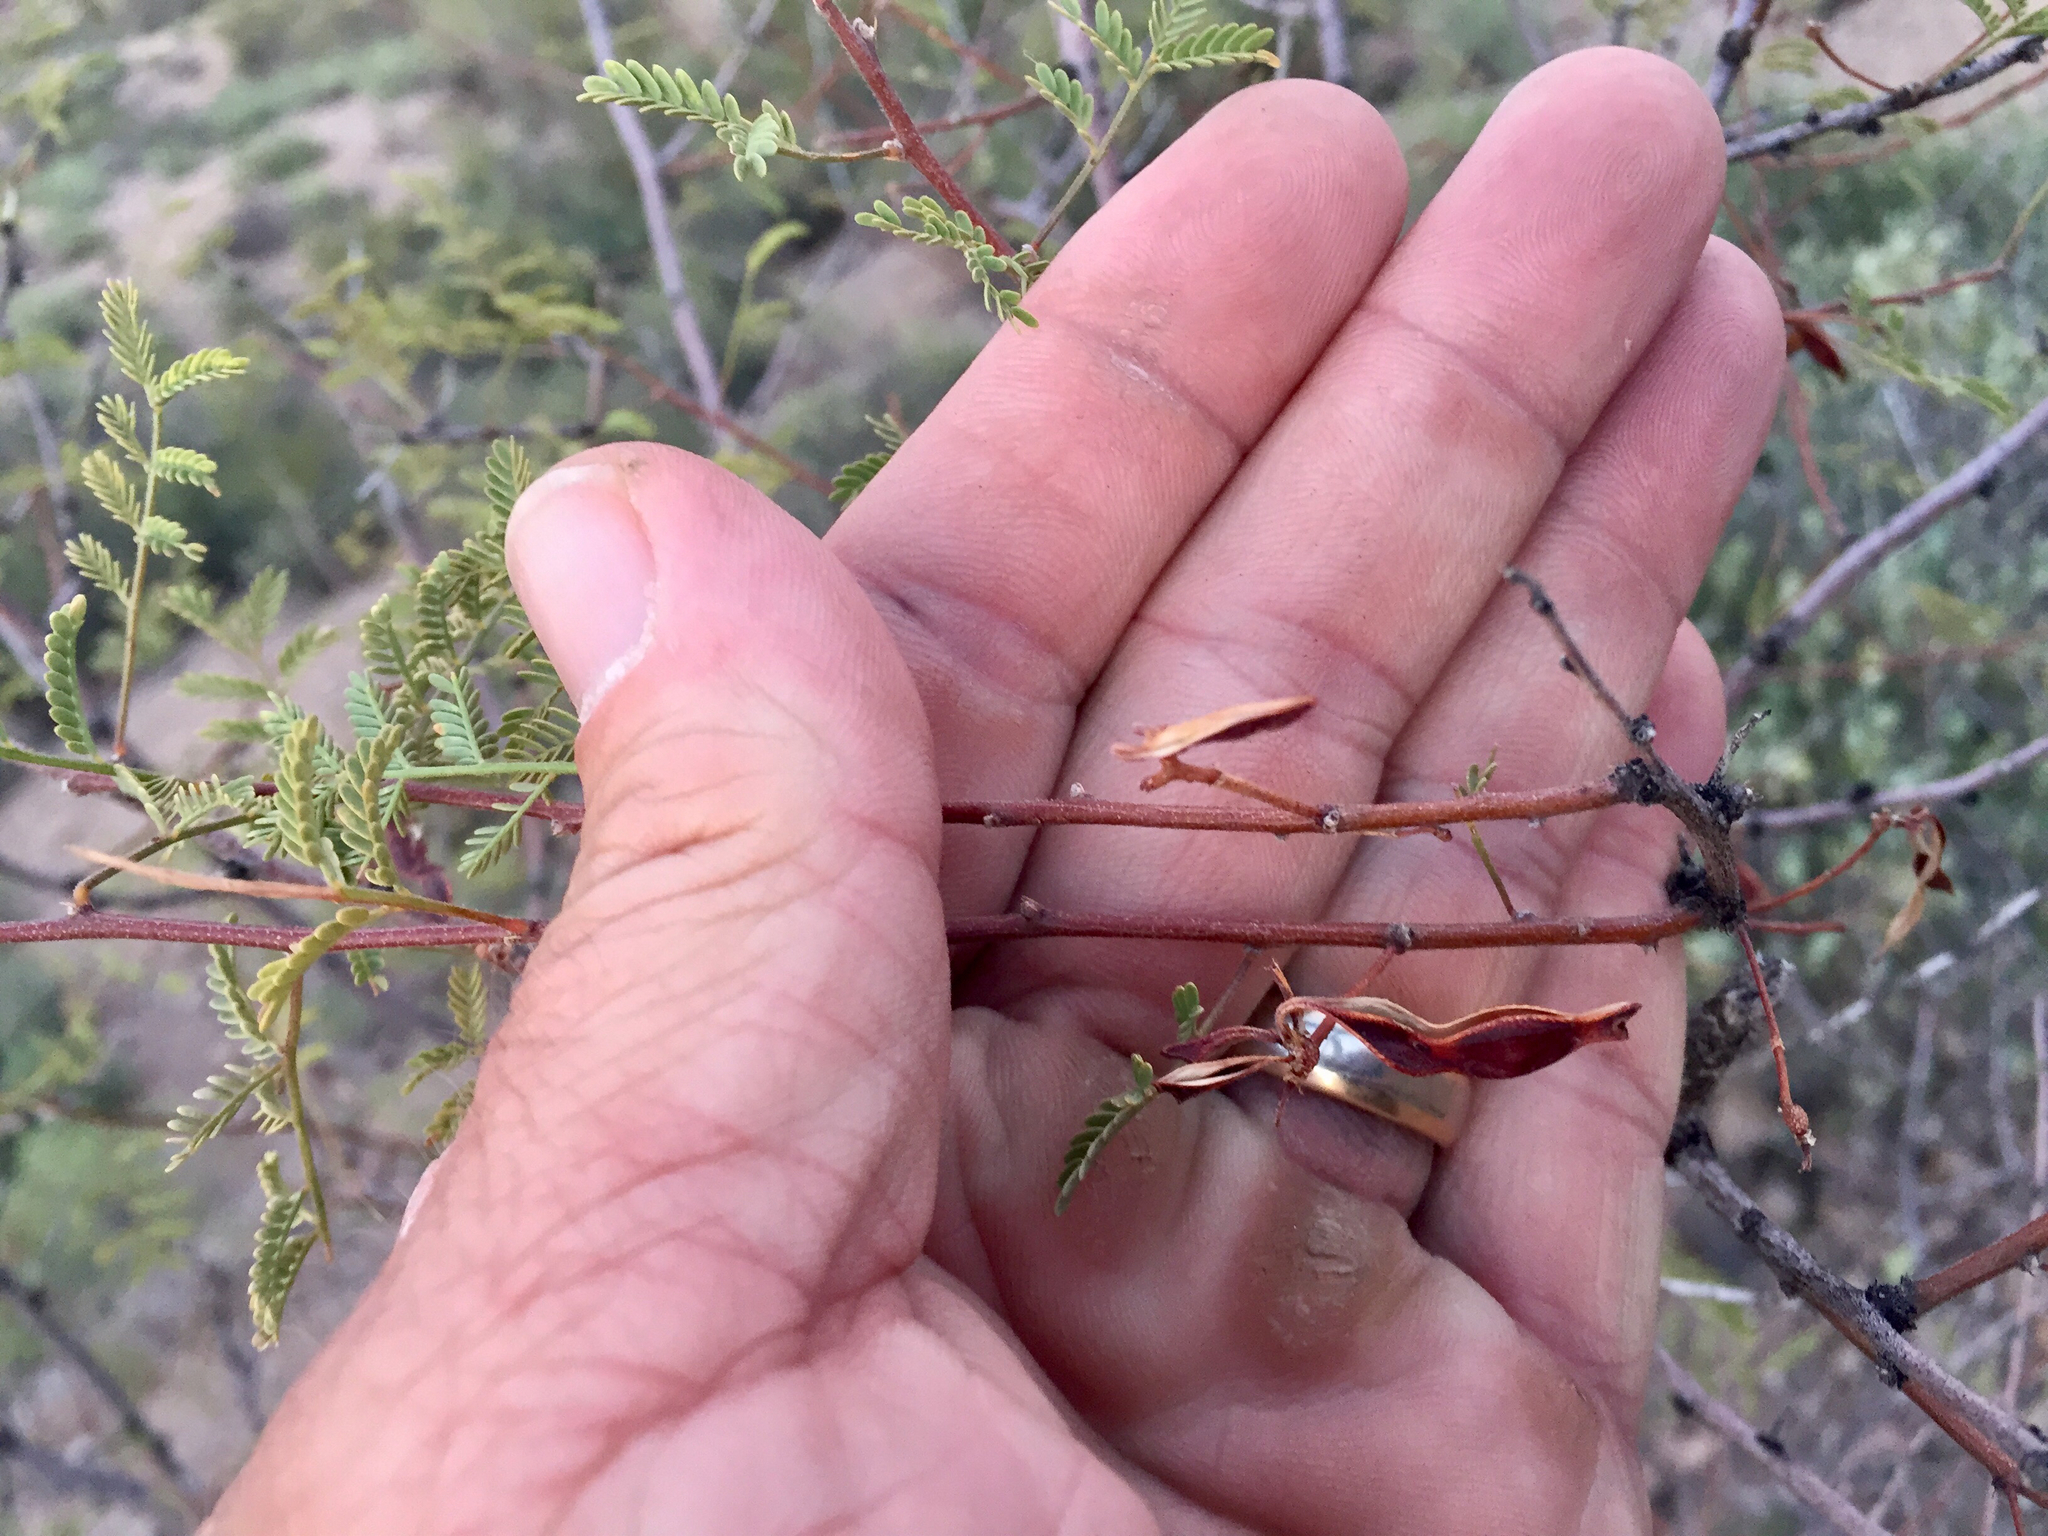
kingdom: Plantae
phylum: Tracheophyta
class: Magnoliopsida
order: Fabales
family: Fabaceae
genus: Vachellia
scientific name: Vachellia constricta
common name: Mescat acacia
